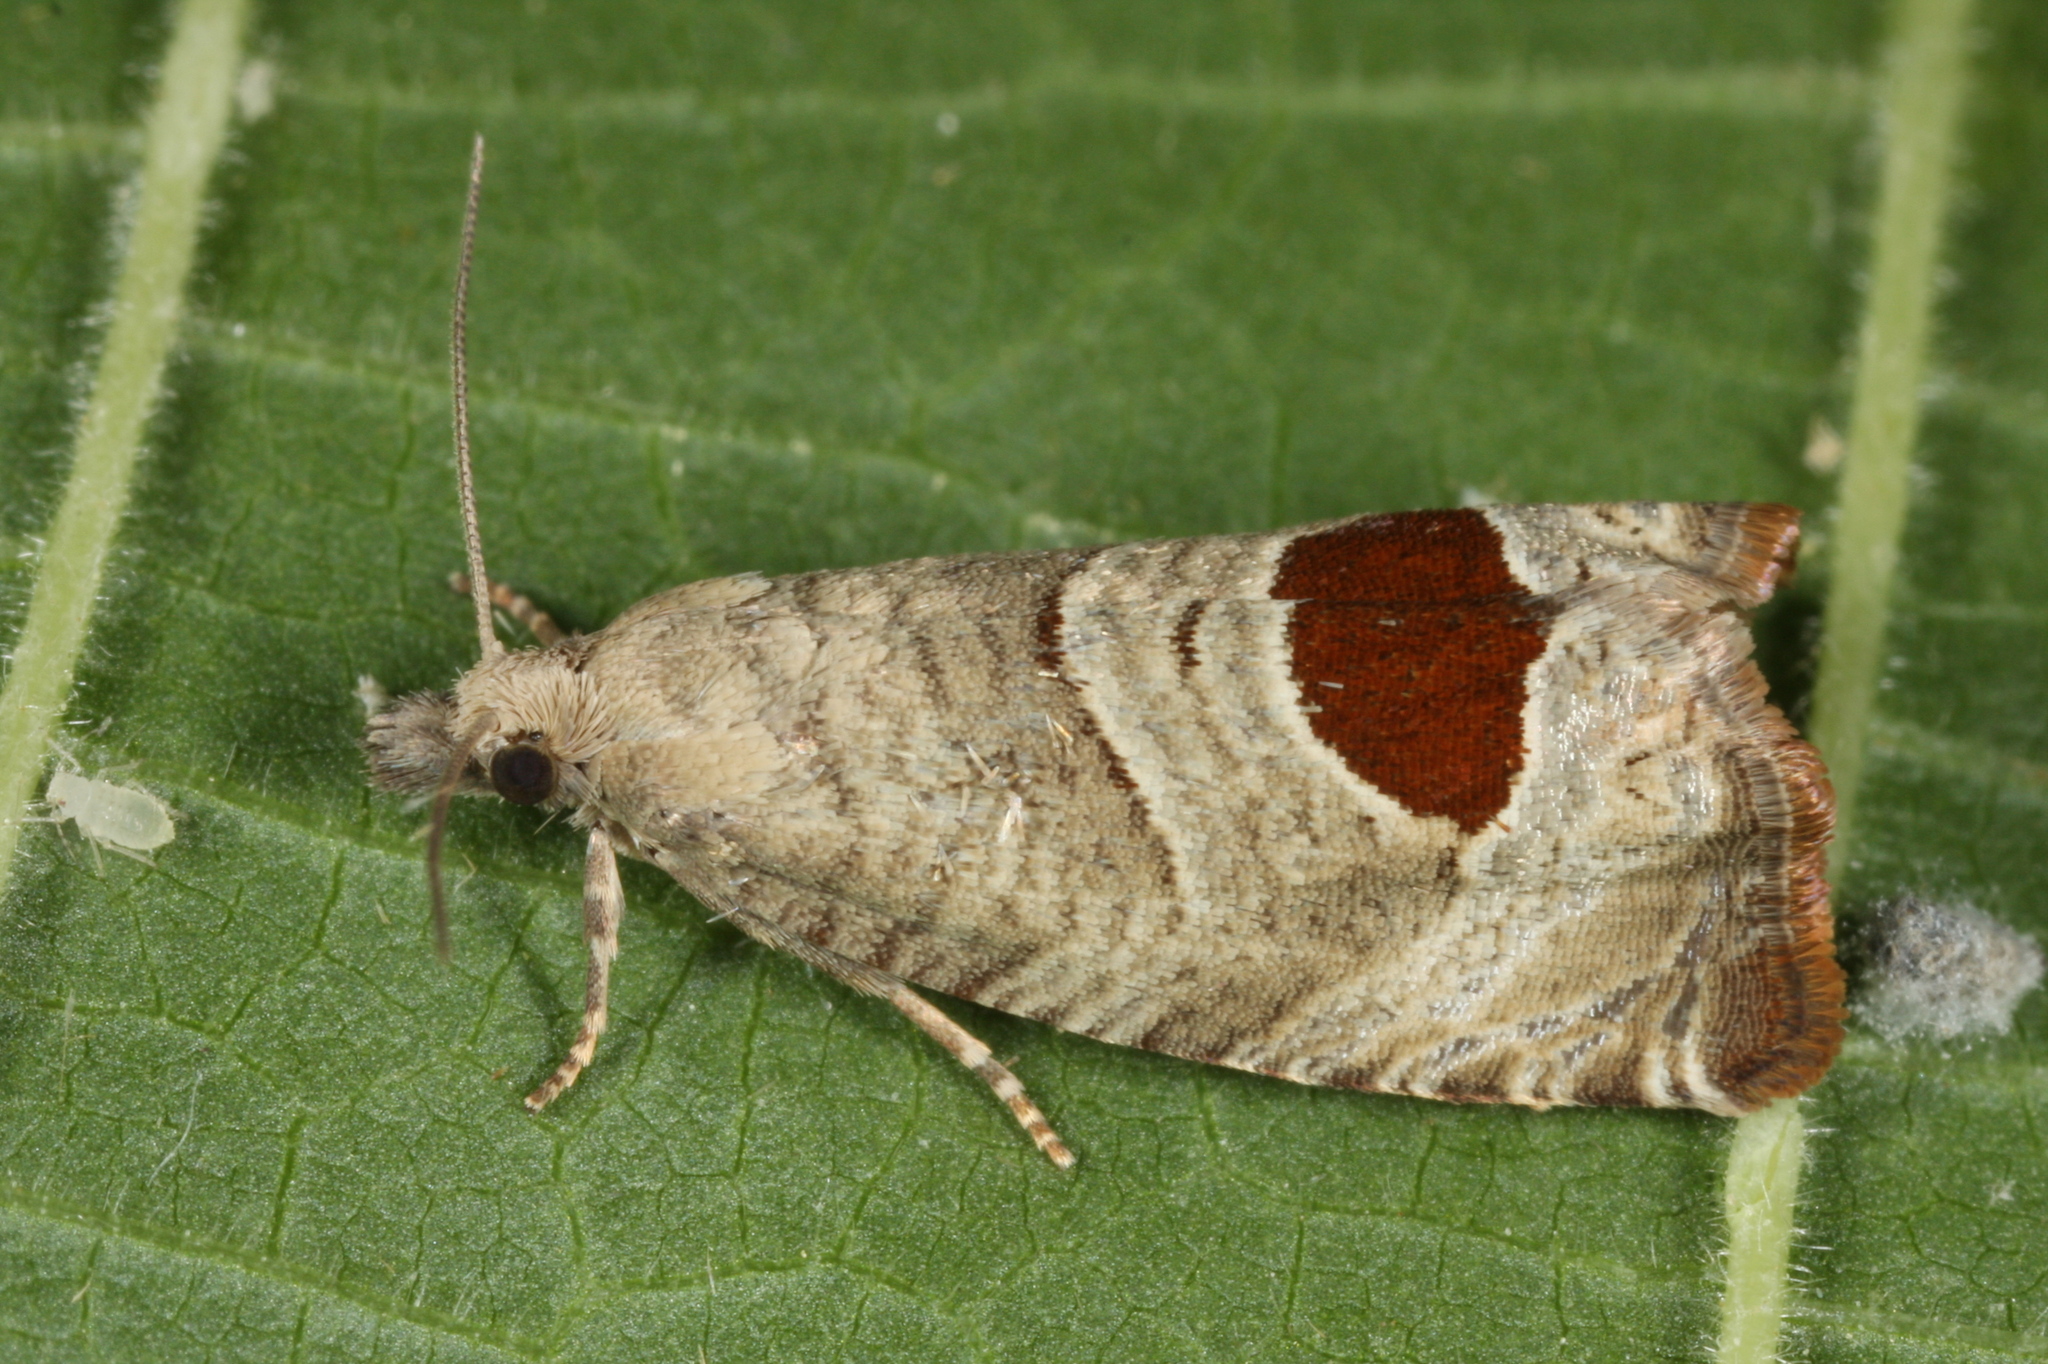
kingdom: Animalia
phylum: Arthropoda
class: Insecta
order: Lepidoptera
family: Tortricidae
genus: Notocelia
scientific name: Notocelia uddmanniana
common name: Bramble shoot moth
